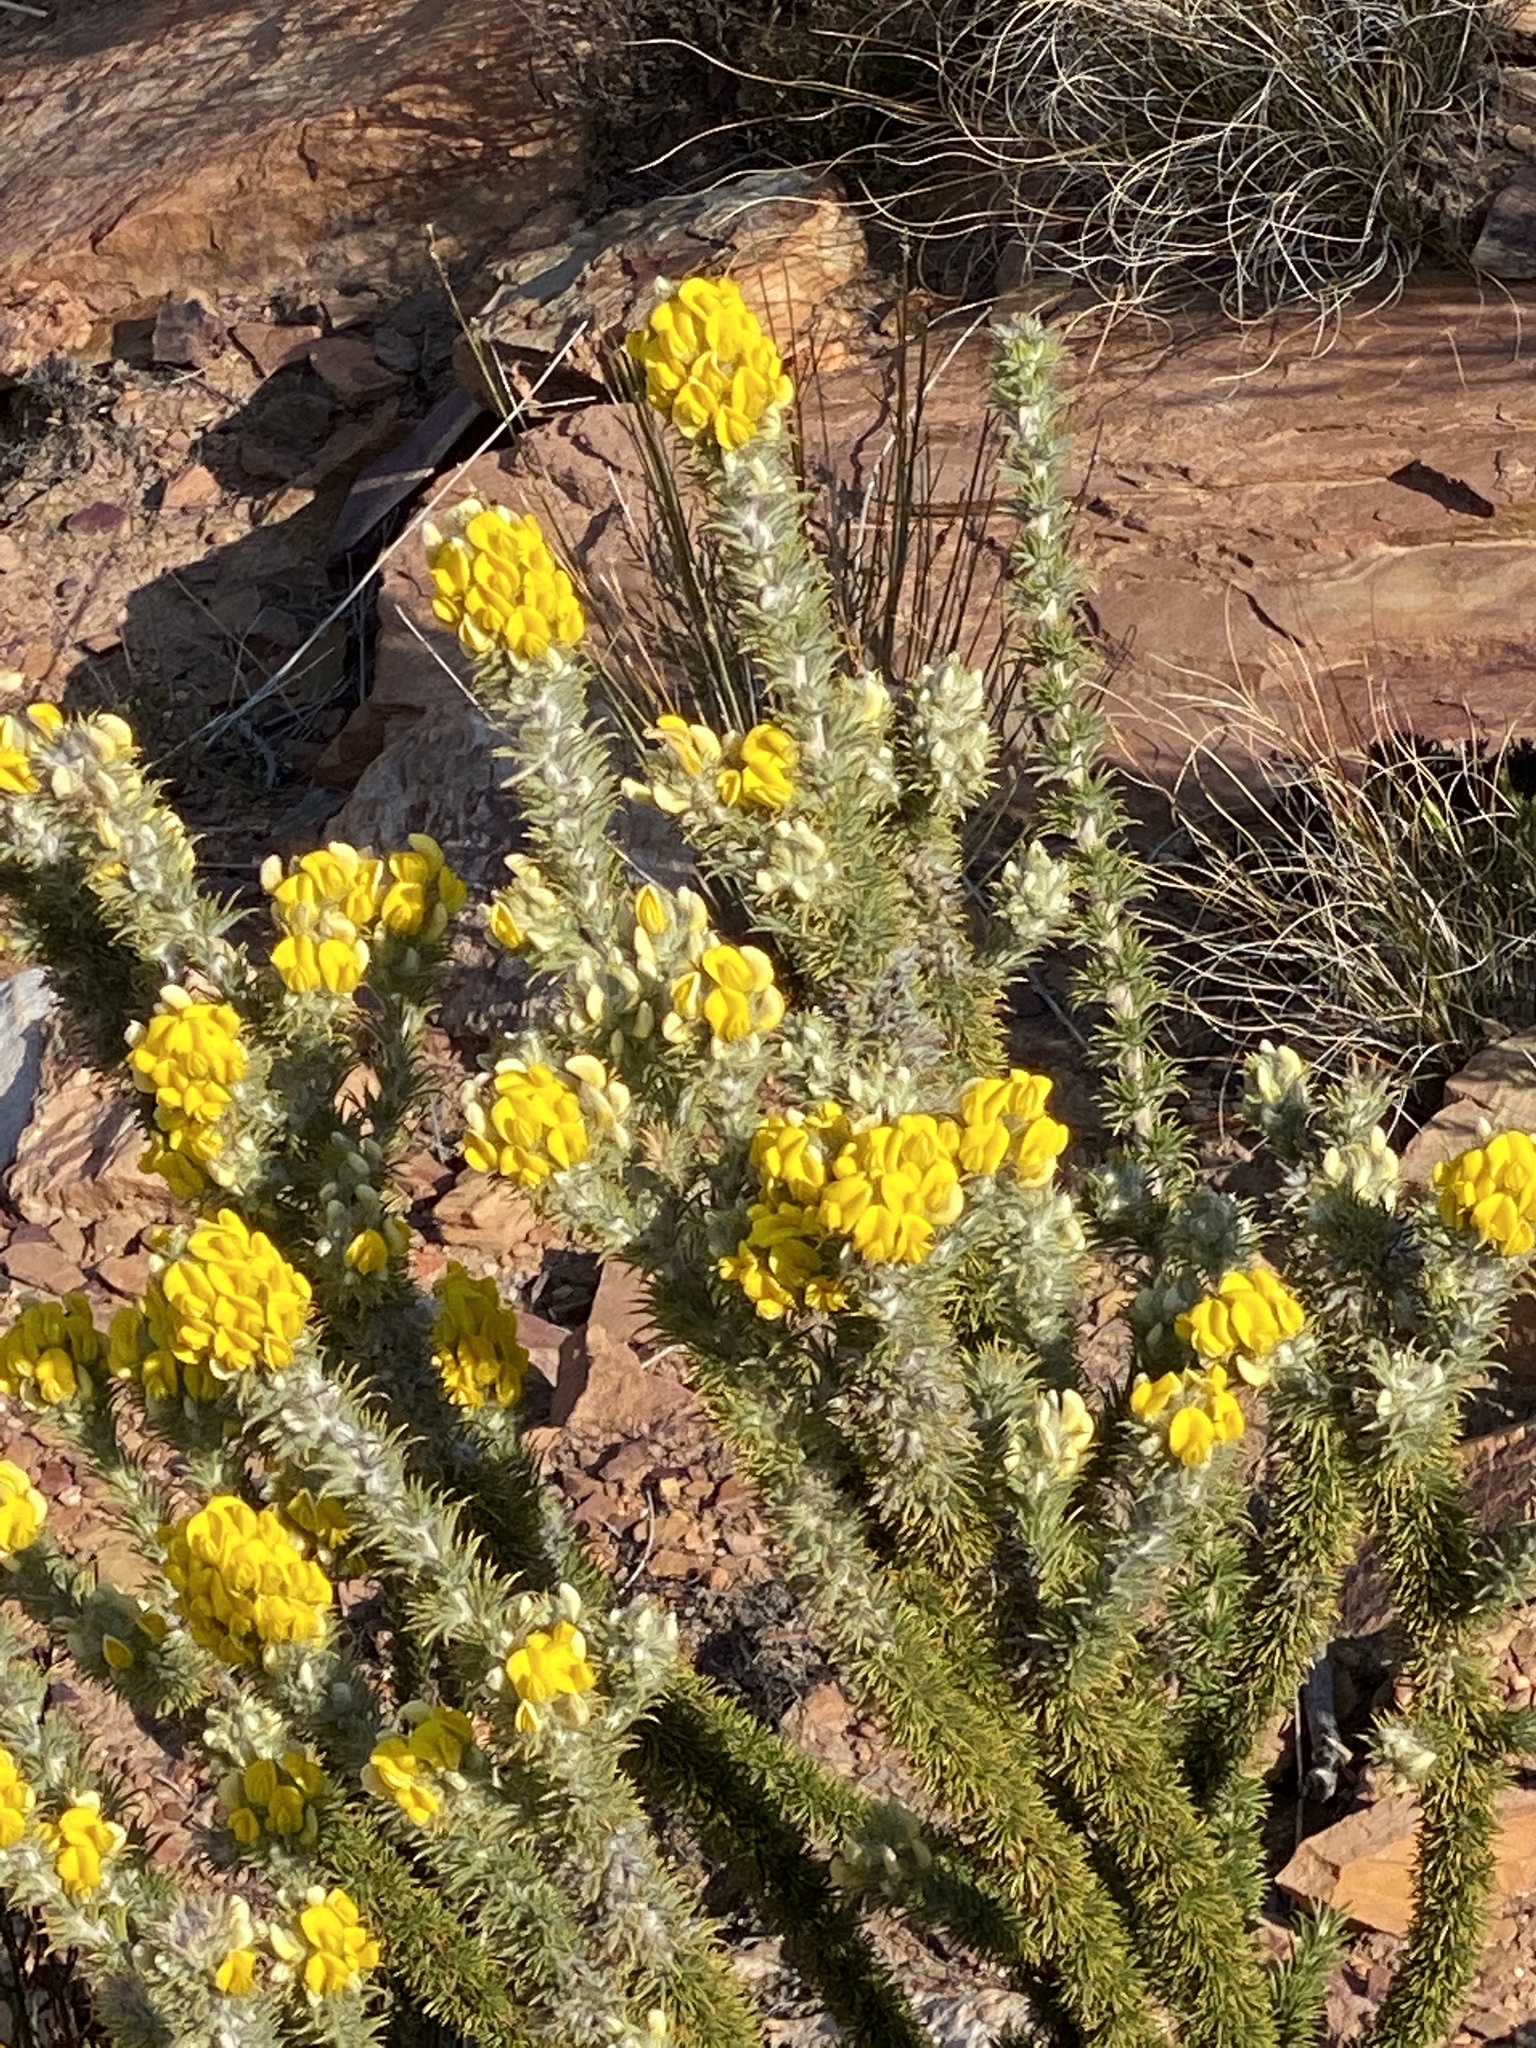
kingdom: Plantae
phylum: Tracheophyta
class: Magnoliopsida
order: Fabales
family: Fabaceae
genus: Aspalathus
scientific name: Aspalathus shawii
